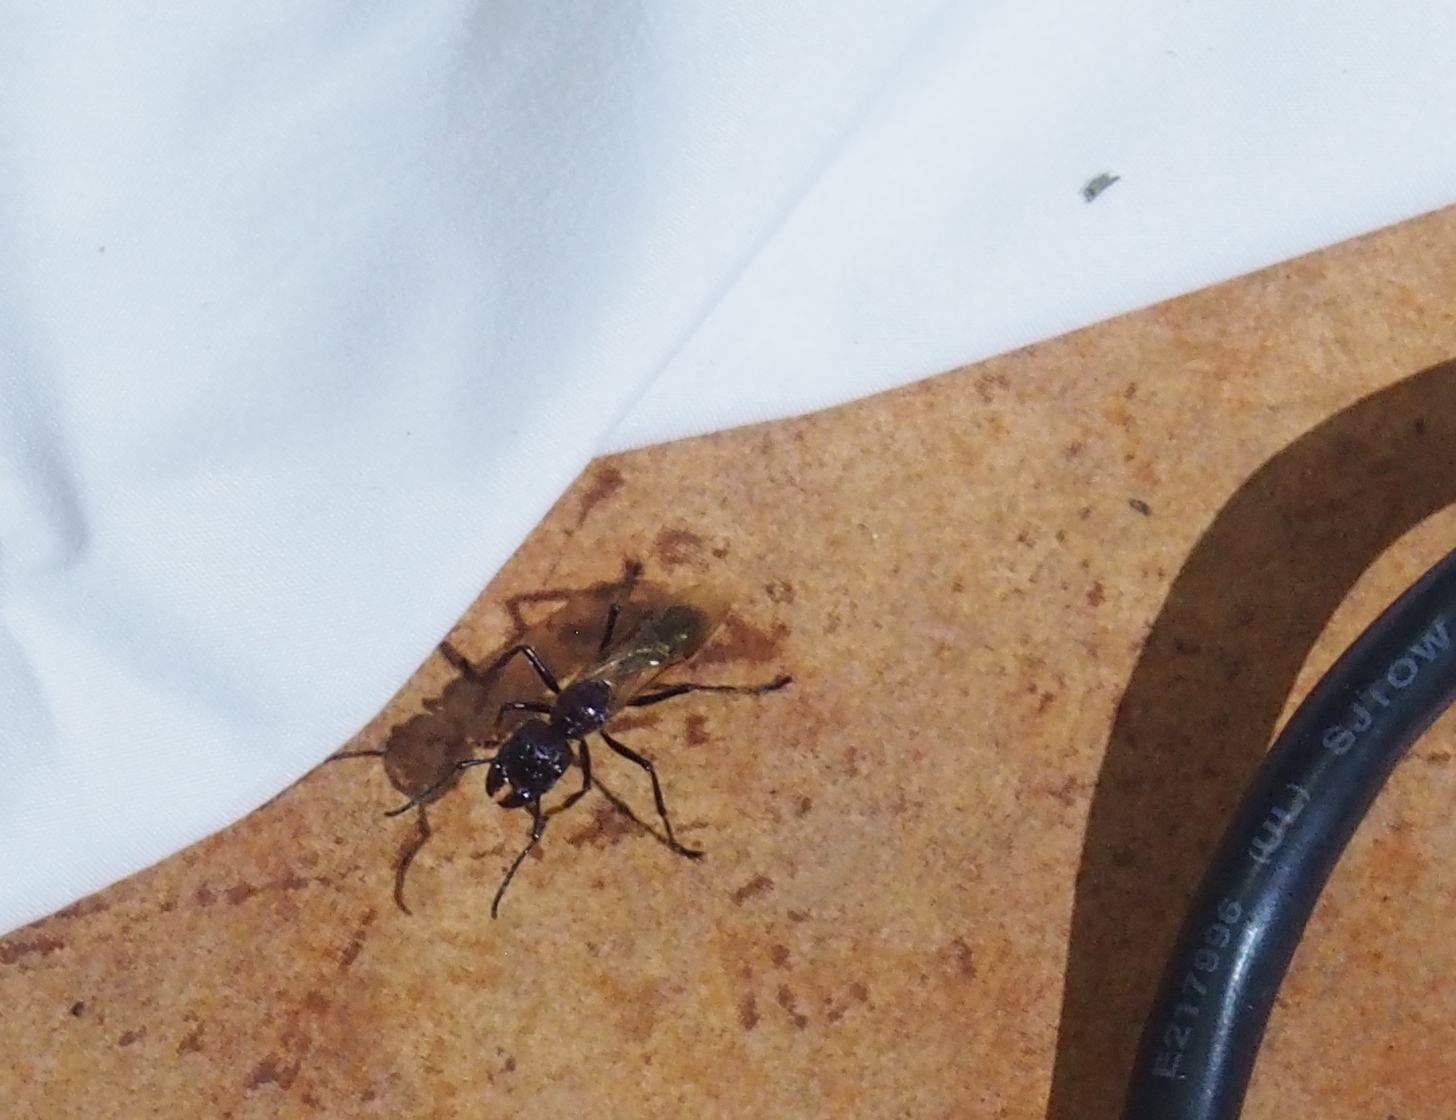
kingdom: Animalia
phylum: Arthropoda
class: Insecta
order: Hymenoptera
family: Formicidae
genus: Paraponera
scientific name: Paraponera clavata
